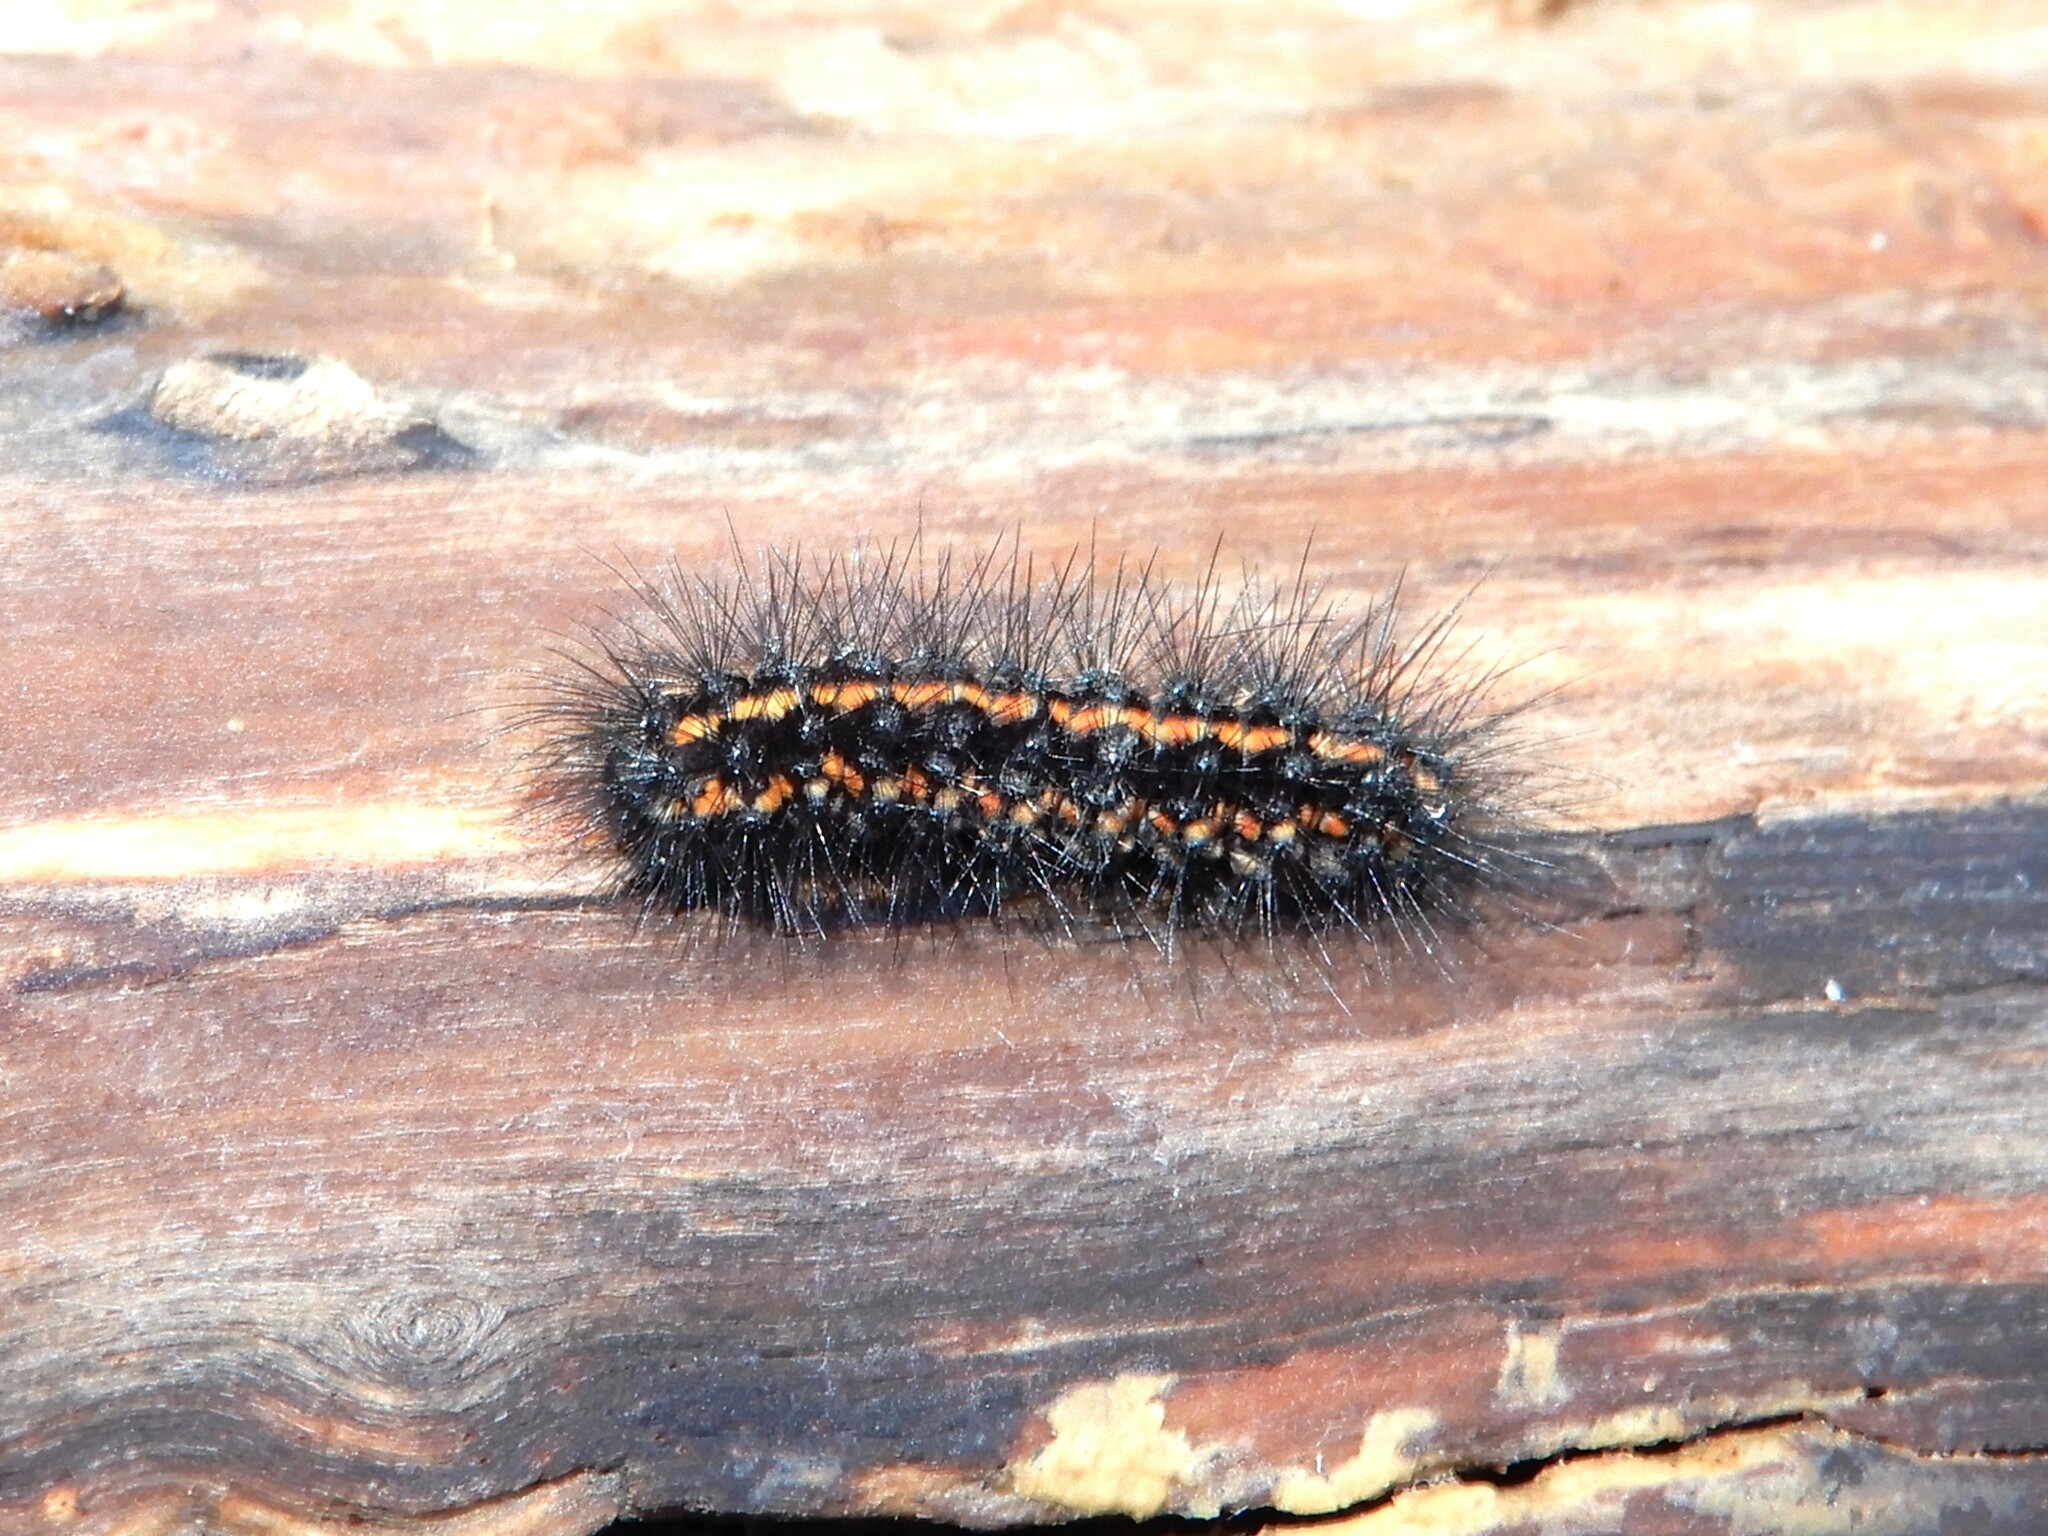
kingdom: Animalia
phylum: Arthropoda
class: Insecta
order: Lepidoptera
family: Erebidae
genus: Nyctemera
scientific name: Nyctemera annulatum
